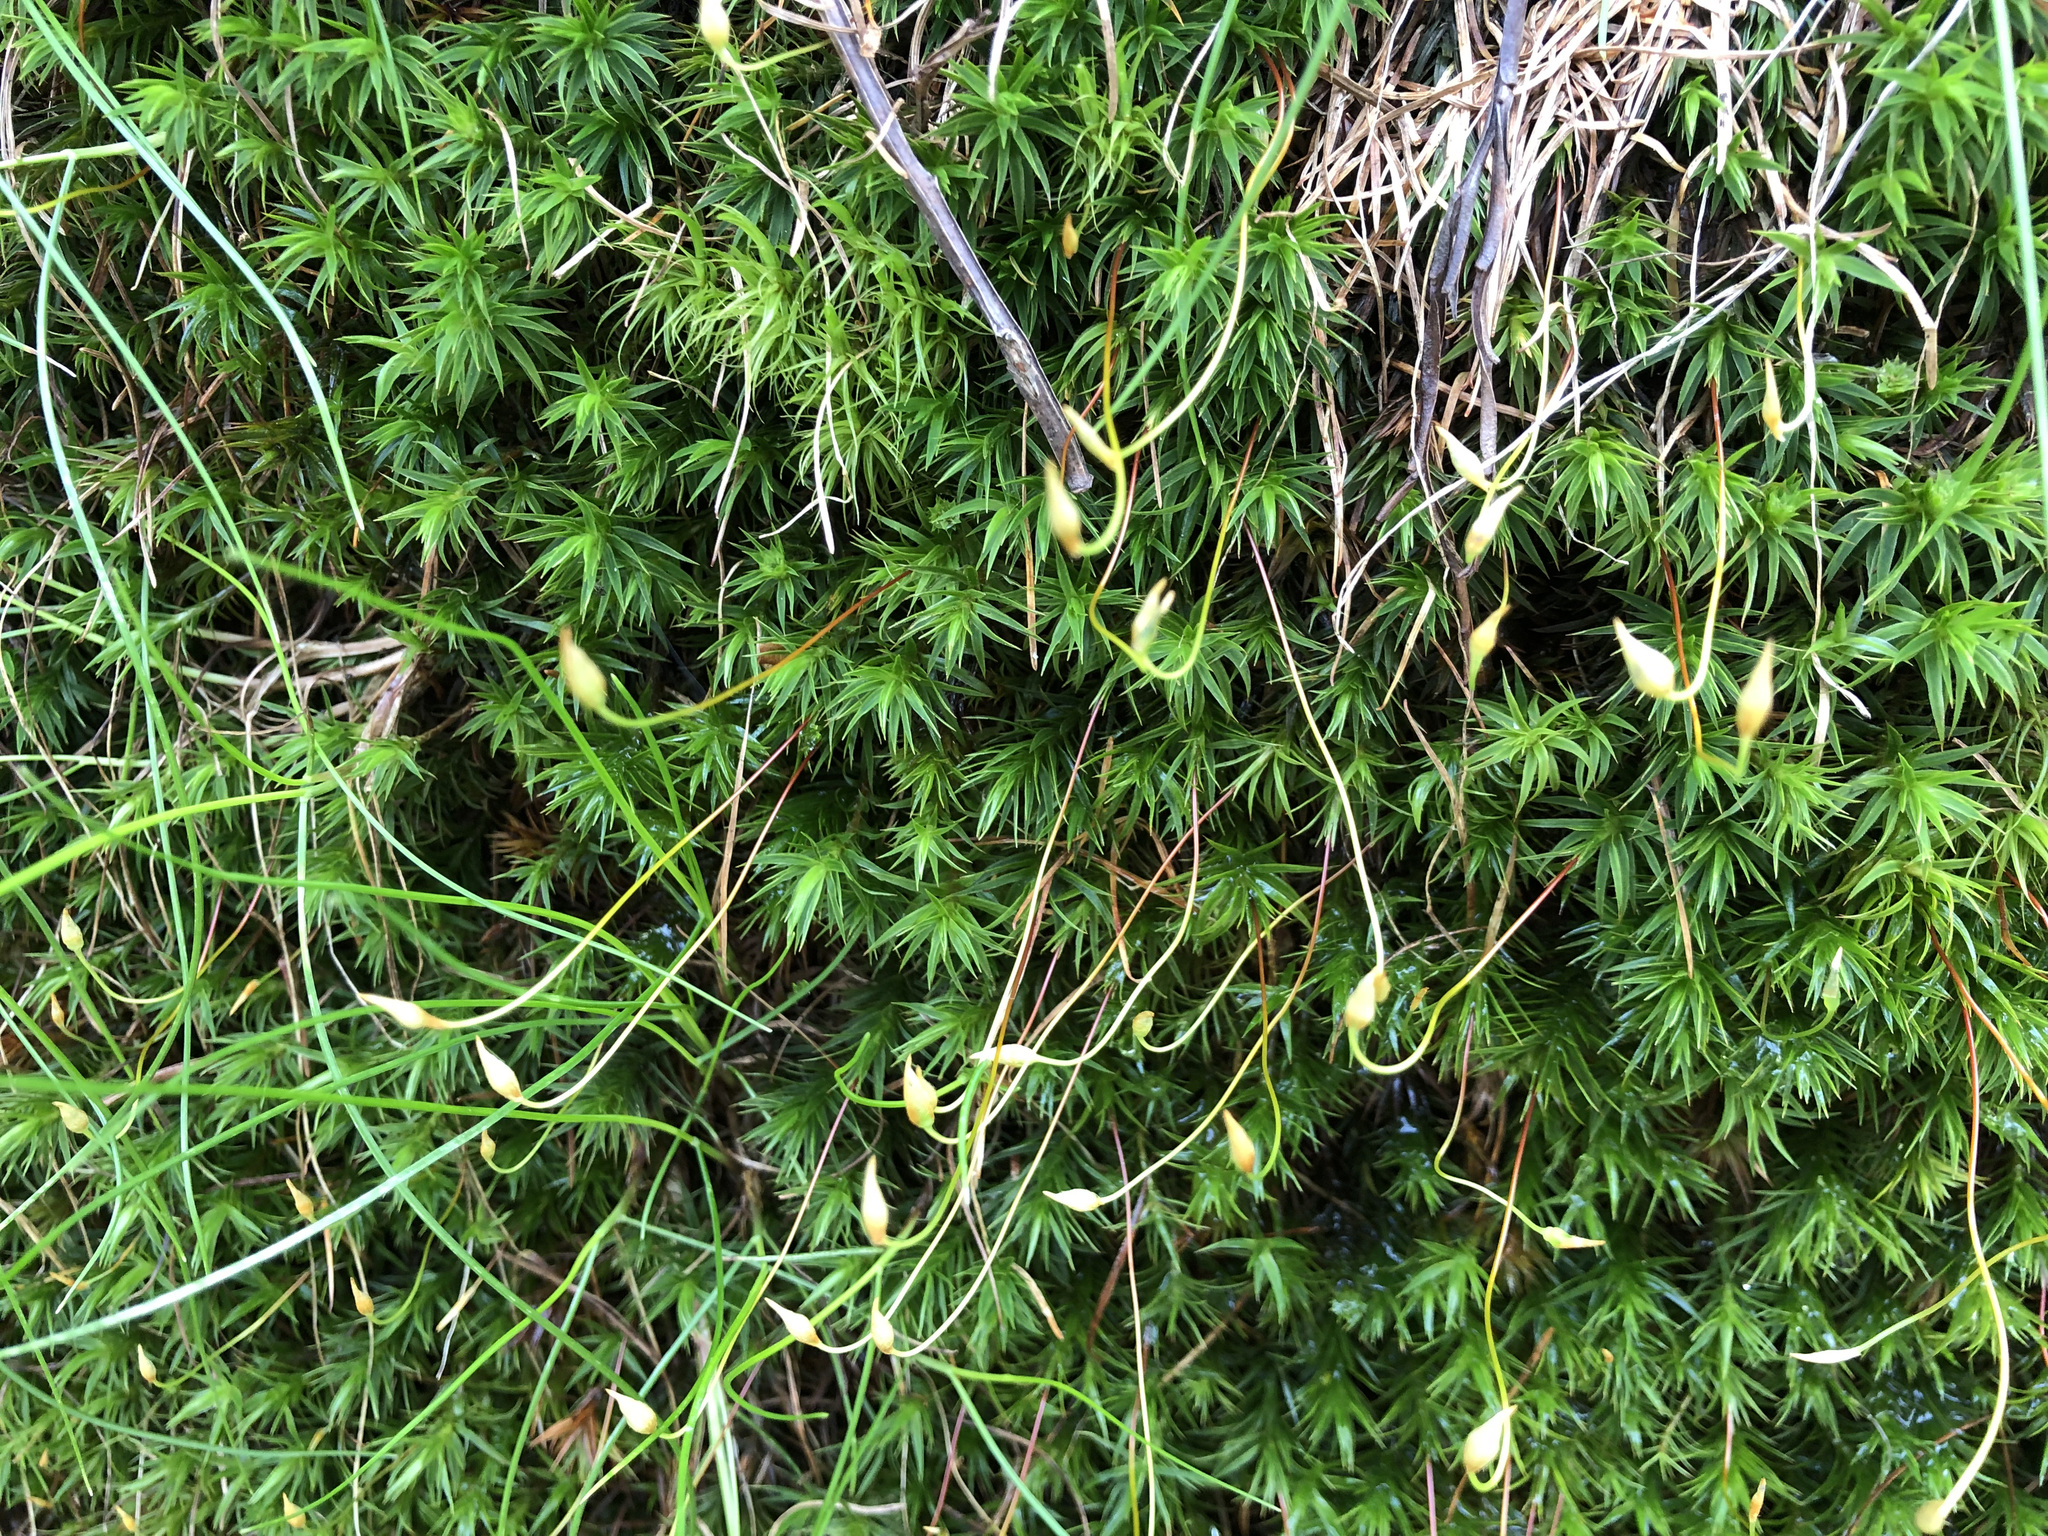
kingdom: Plantae
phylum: Bryophyta
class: Polytrichopsida
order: Polytrichales
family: Polytrichaceae
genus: Polytrichum
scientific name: Polytrichum formosum
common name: Bank haircap moss
